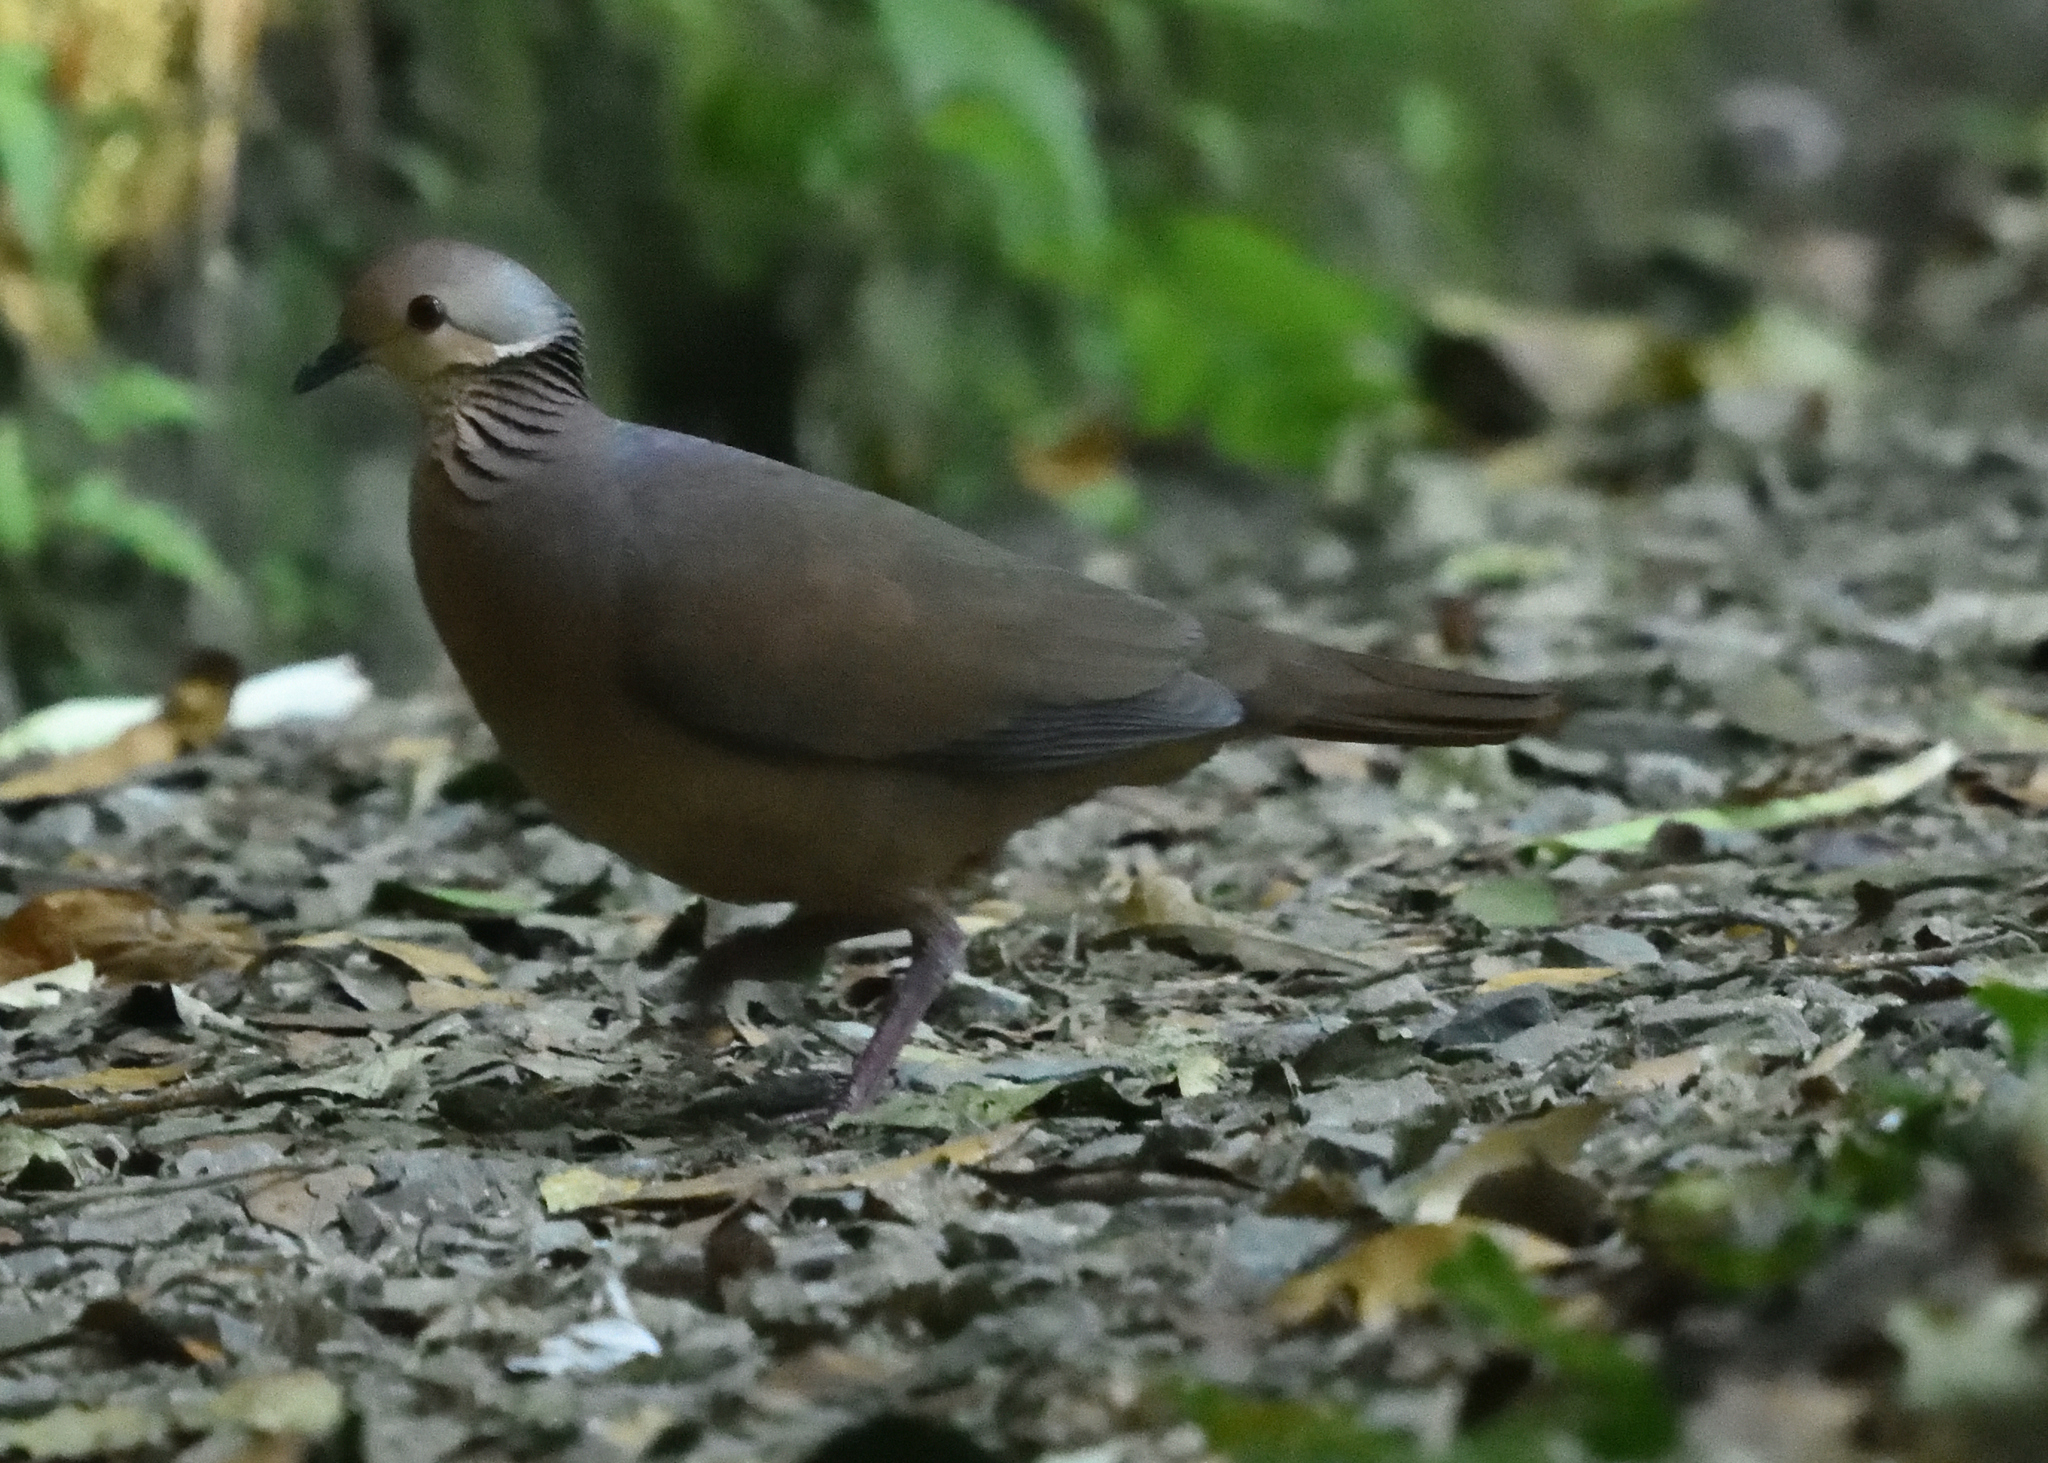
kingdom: Animalia
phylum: Chordata
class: Aves
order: Columbiformes
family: Columbidae
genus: Zentrygon
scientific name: Zentrygon linearis
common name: Lined quail-dove
